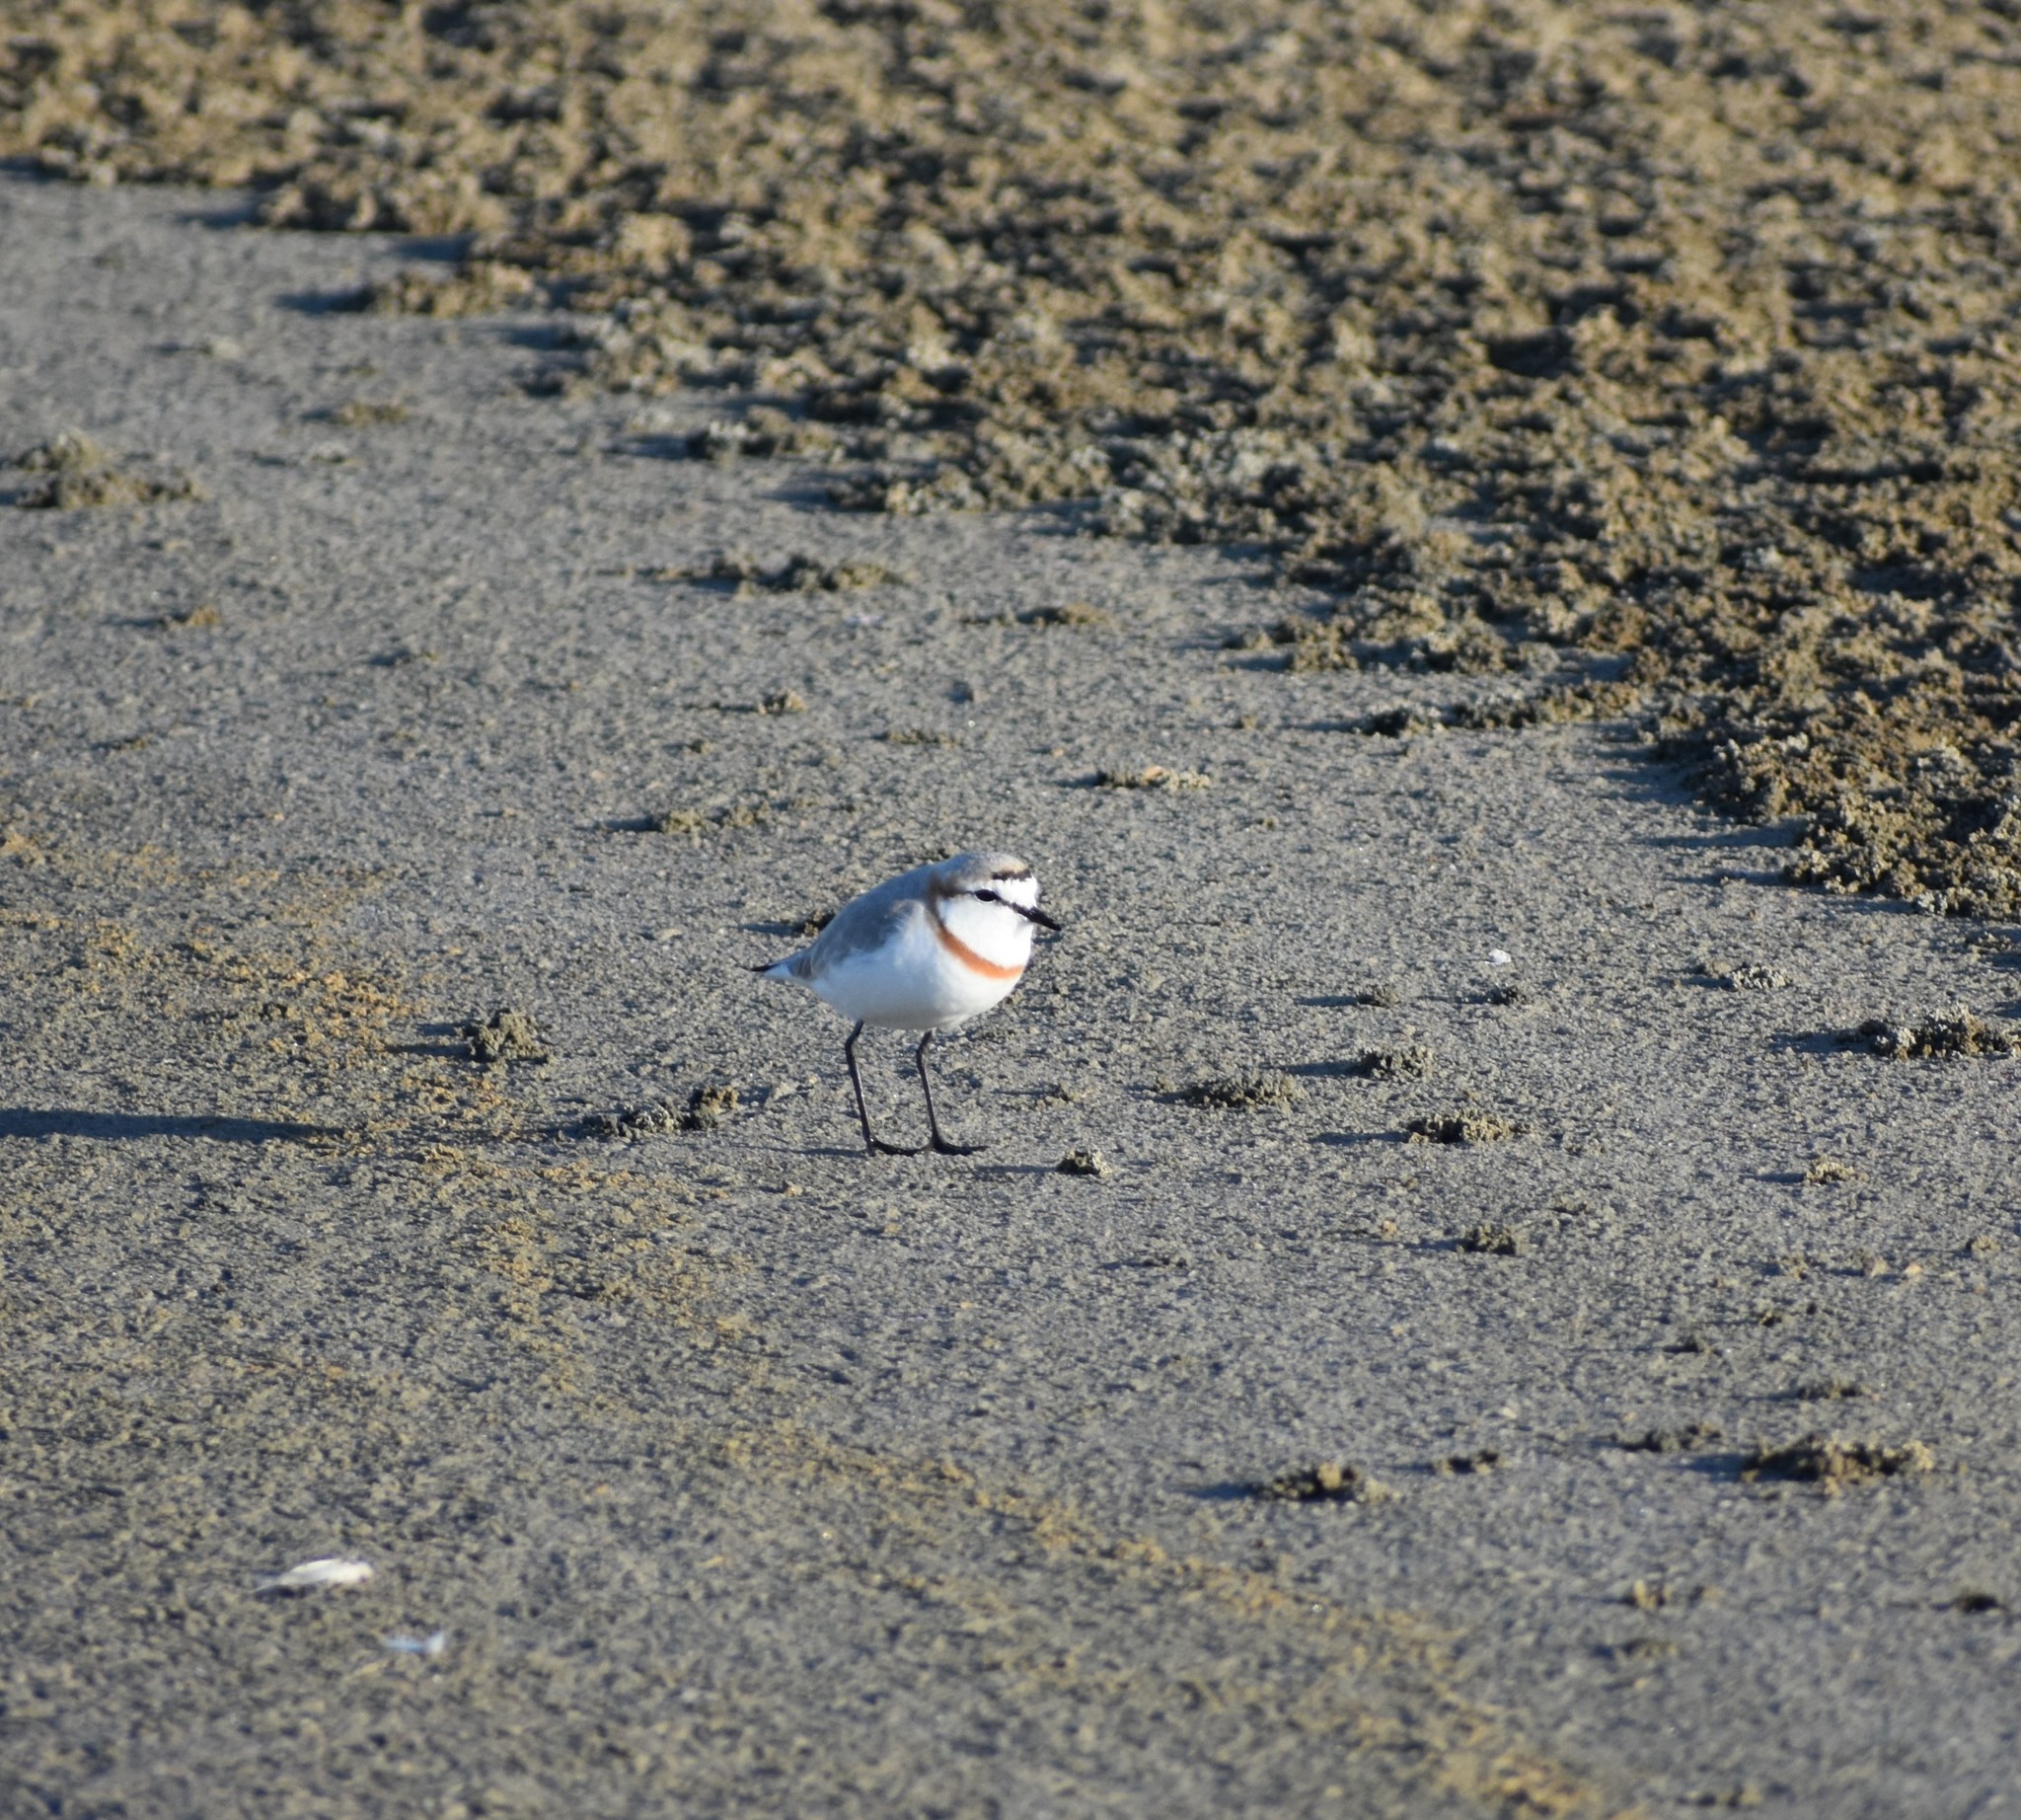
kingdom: Animalia
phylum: Chordata
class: Aves
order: Charadriiformes
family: Charadriidae
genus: Anarhynchus
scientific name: Anarhynchus
